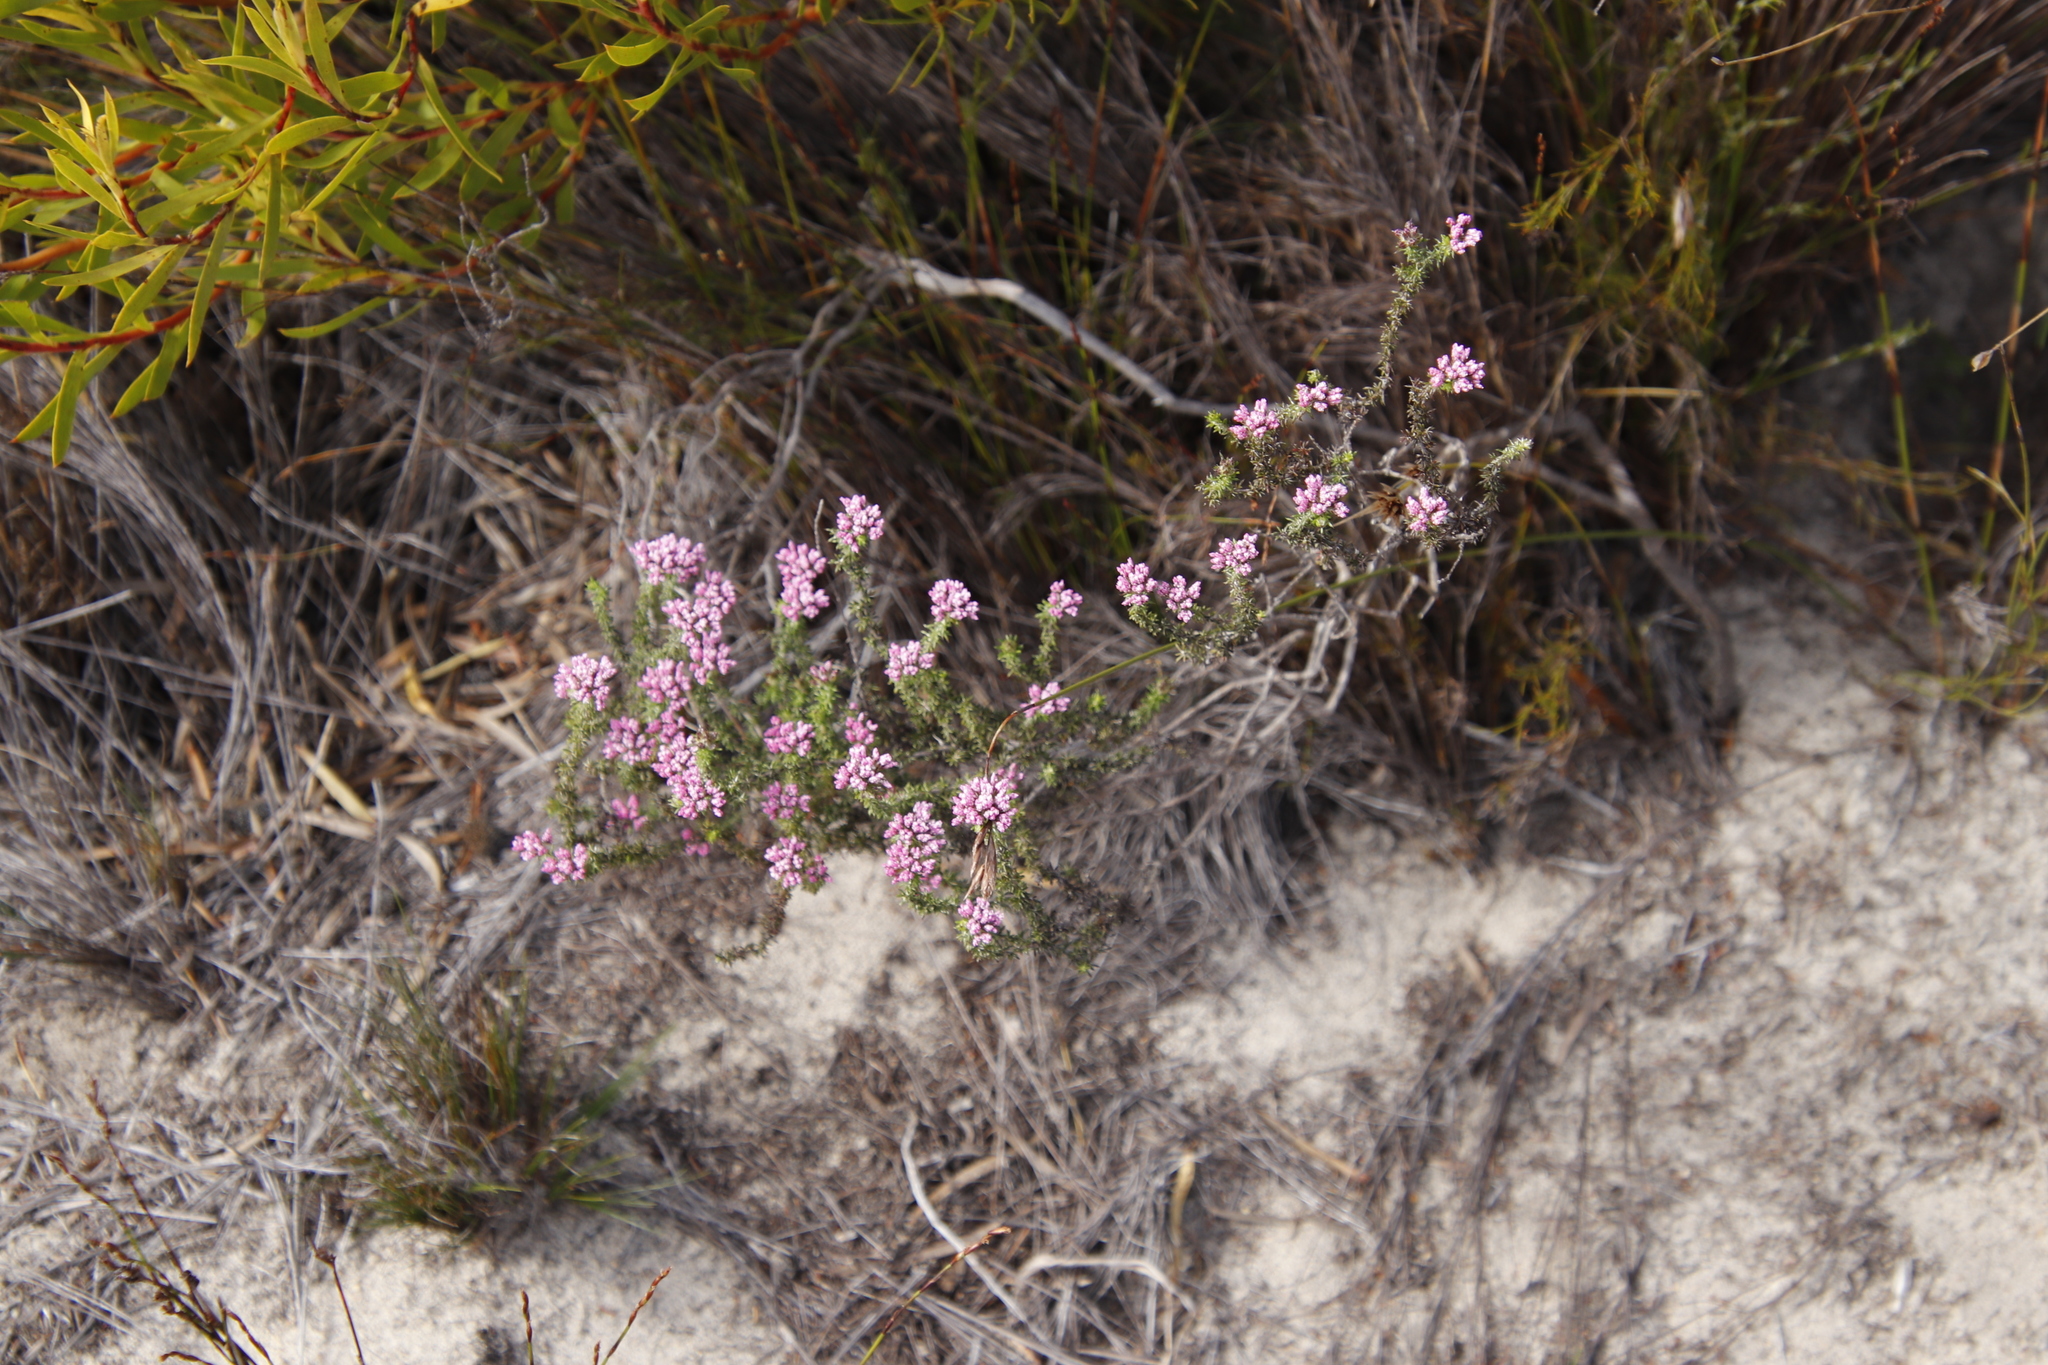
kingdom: Plantae
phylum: Tracheophyta
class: Magnoliopsida
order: Asterales
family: Asteraceae
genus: Metalasia
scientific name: Metalasia erubescens
